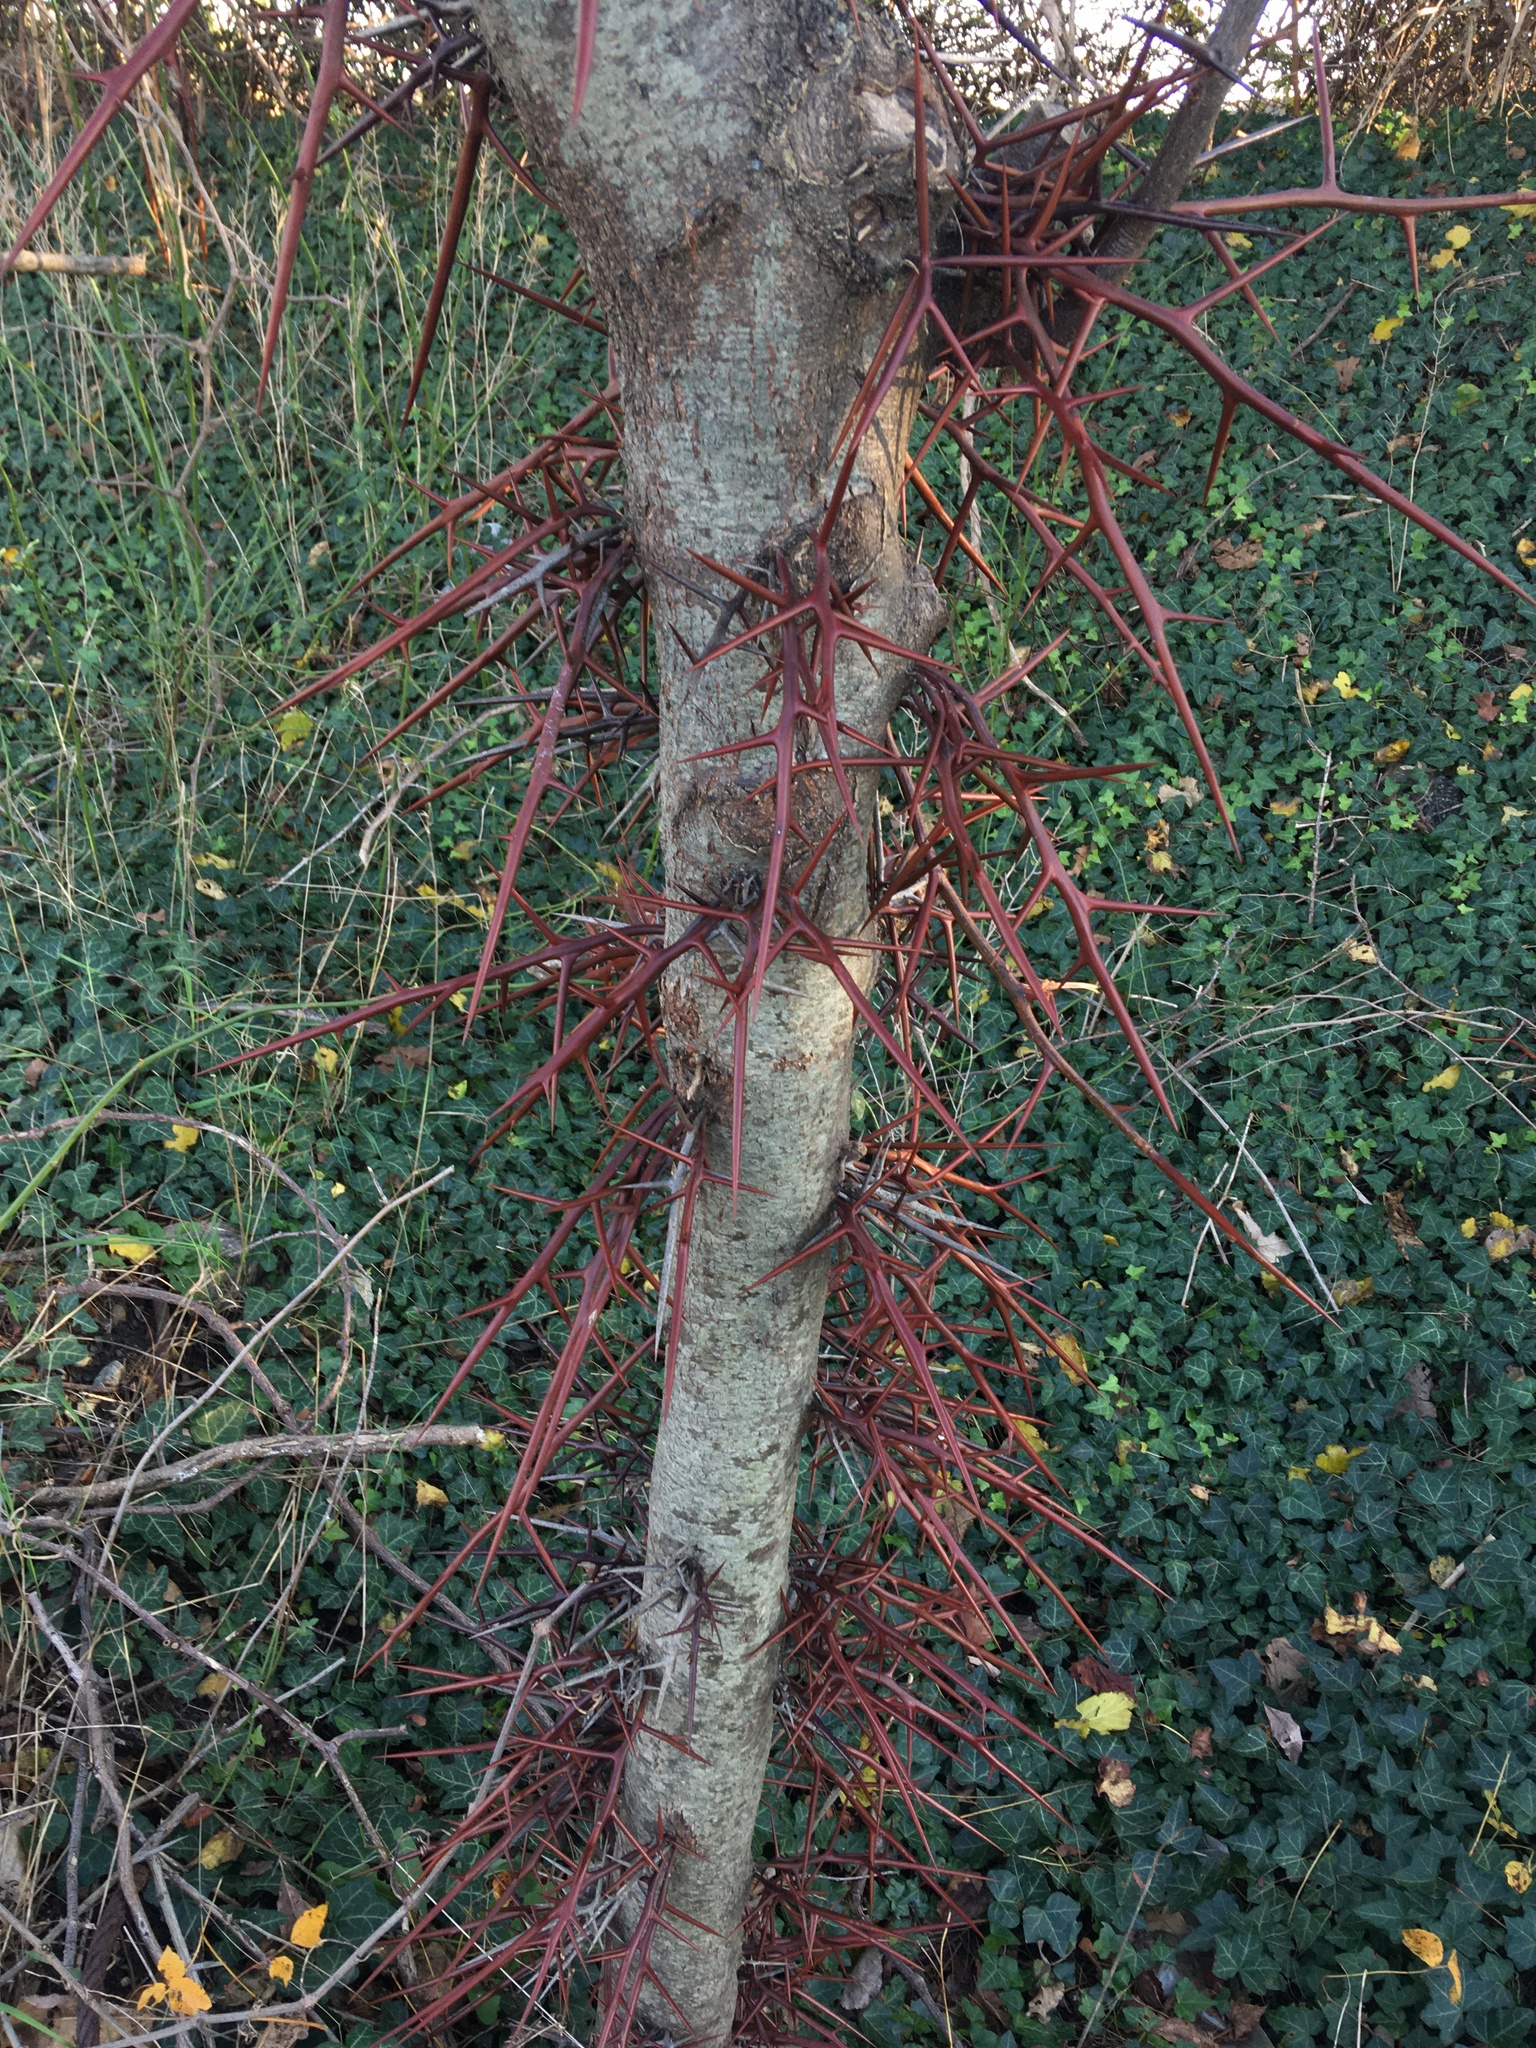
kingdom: Plantae
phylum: Tracheophyta
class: Magnoliopsida
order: Fabales
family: Fabaceae
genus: Gleditsia
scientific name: Gleditsia triacanthos
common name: Common honeylocust
